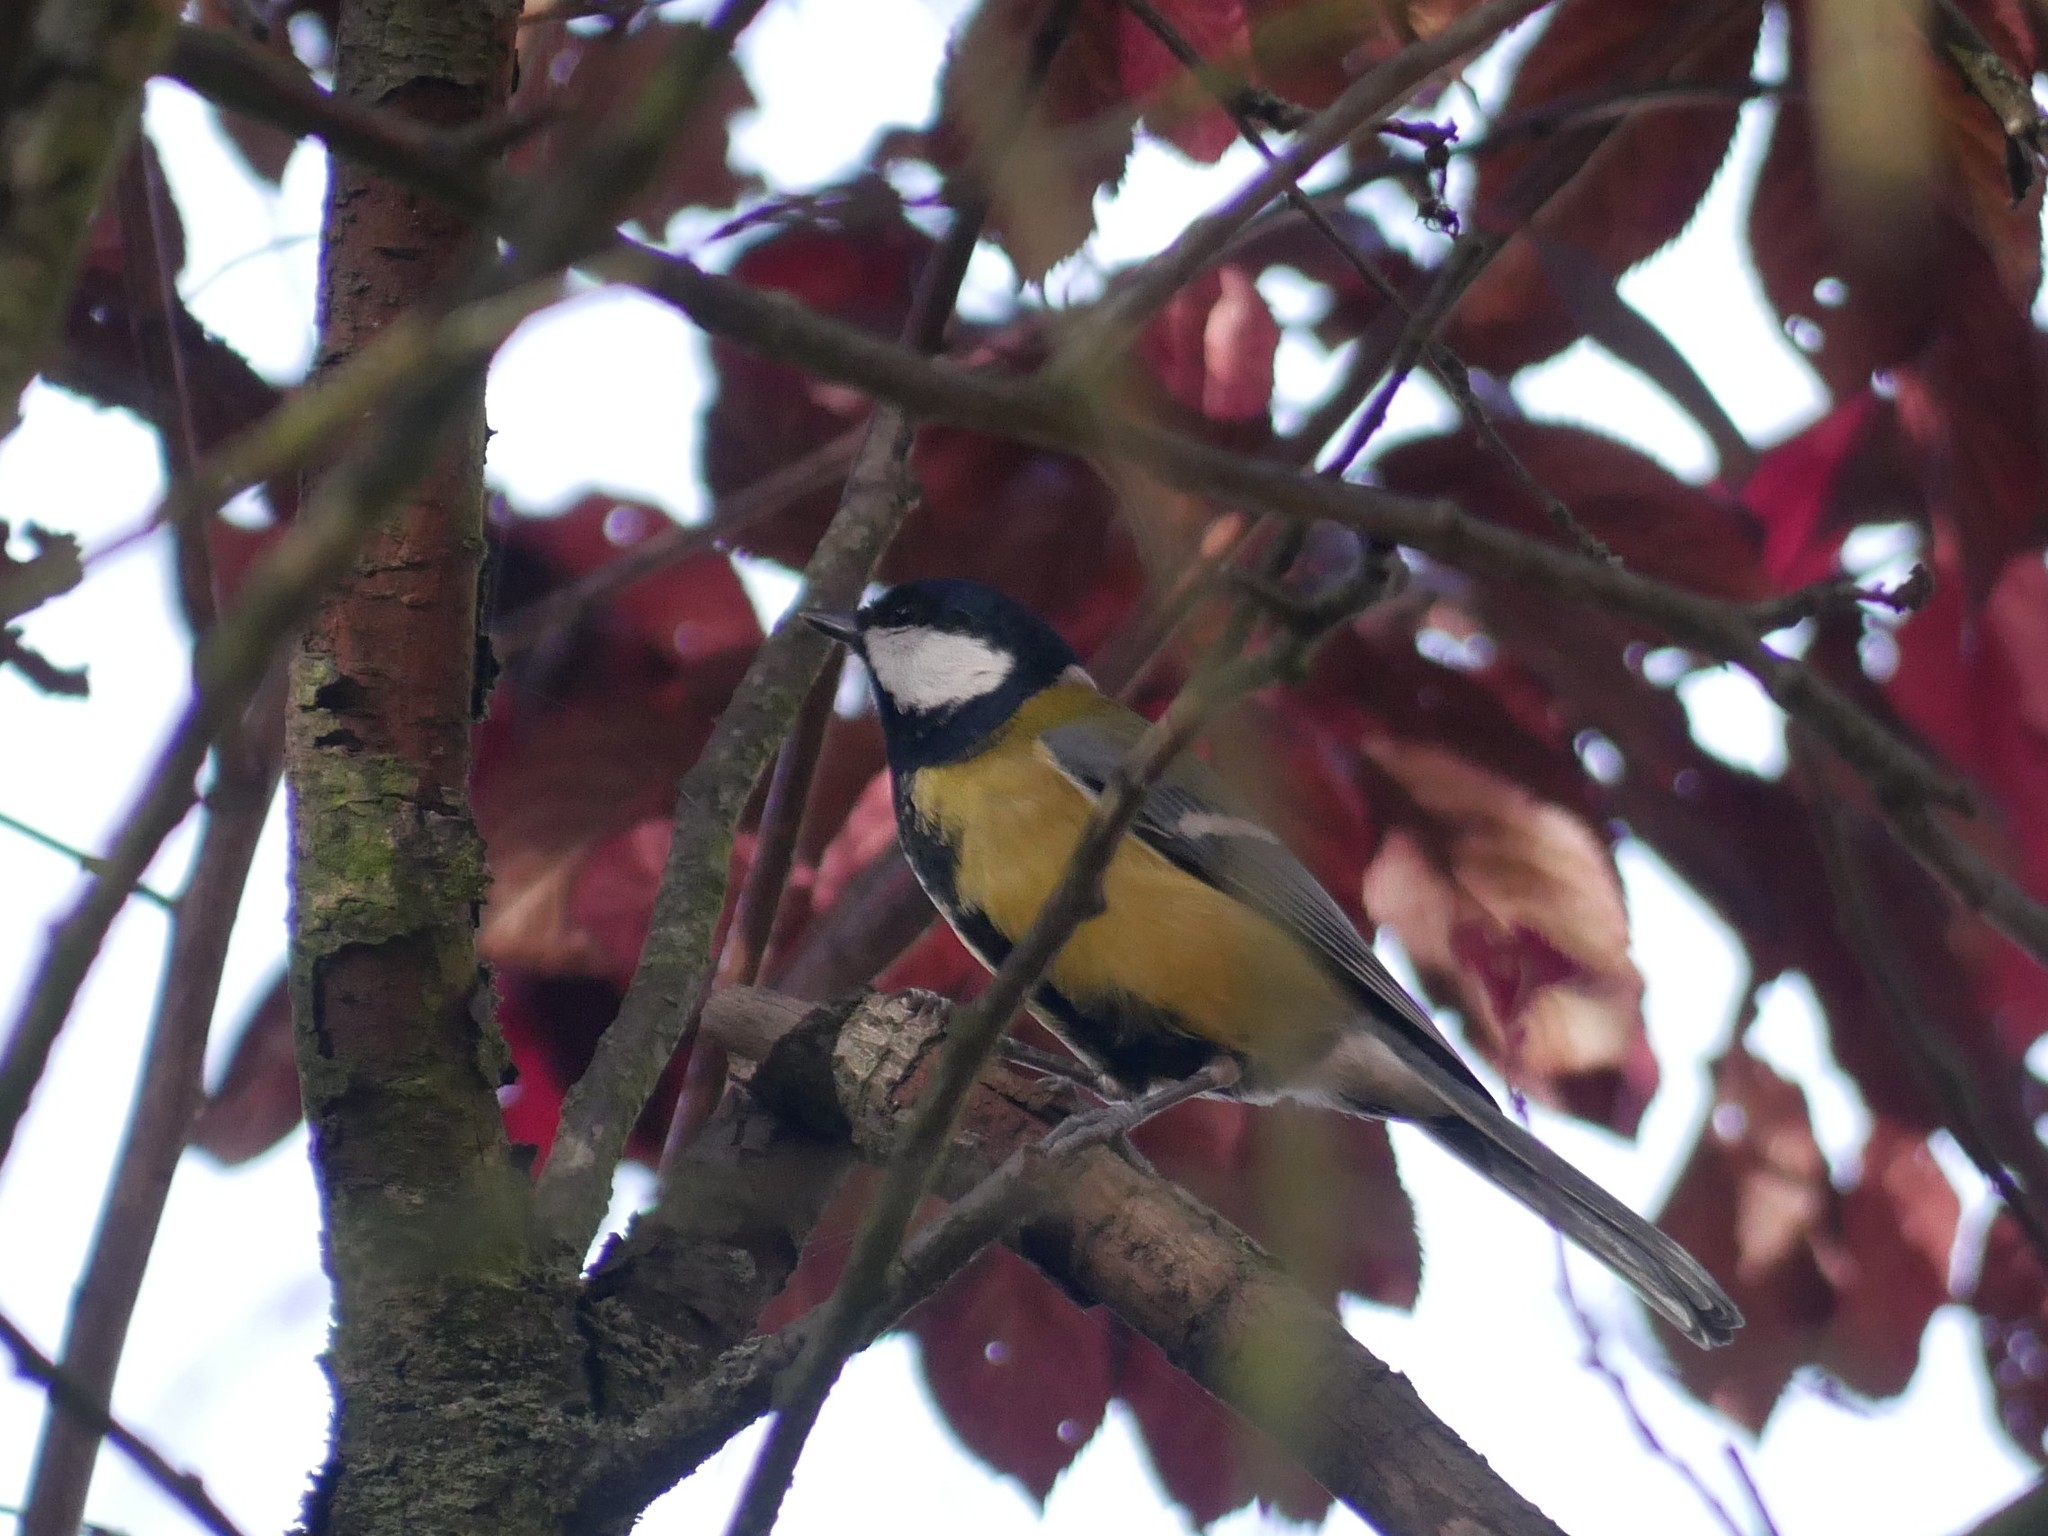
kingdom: Animalia
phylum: Chordata
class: Aves
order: Passeriformes
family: Paridae
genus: Parus
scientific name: Parus major
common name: Great tit
